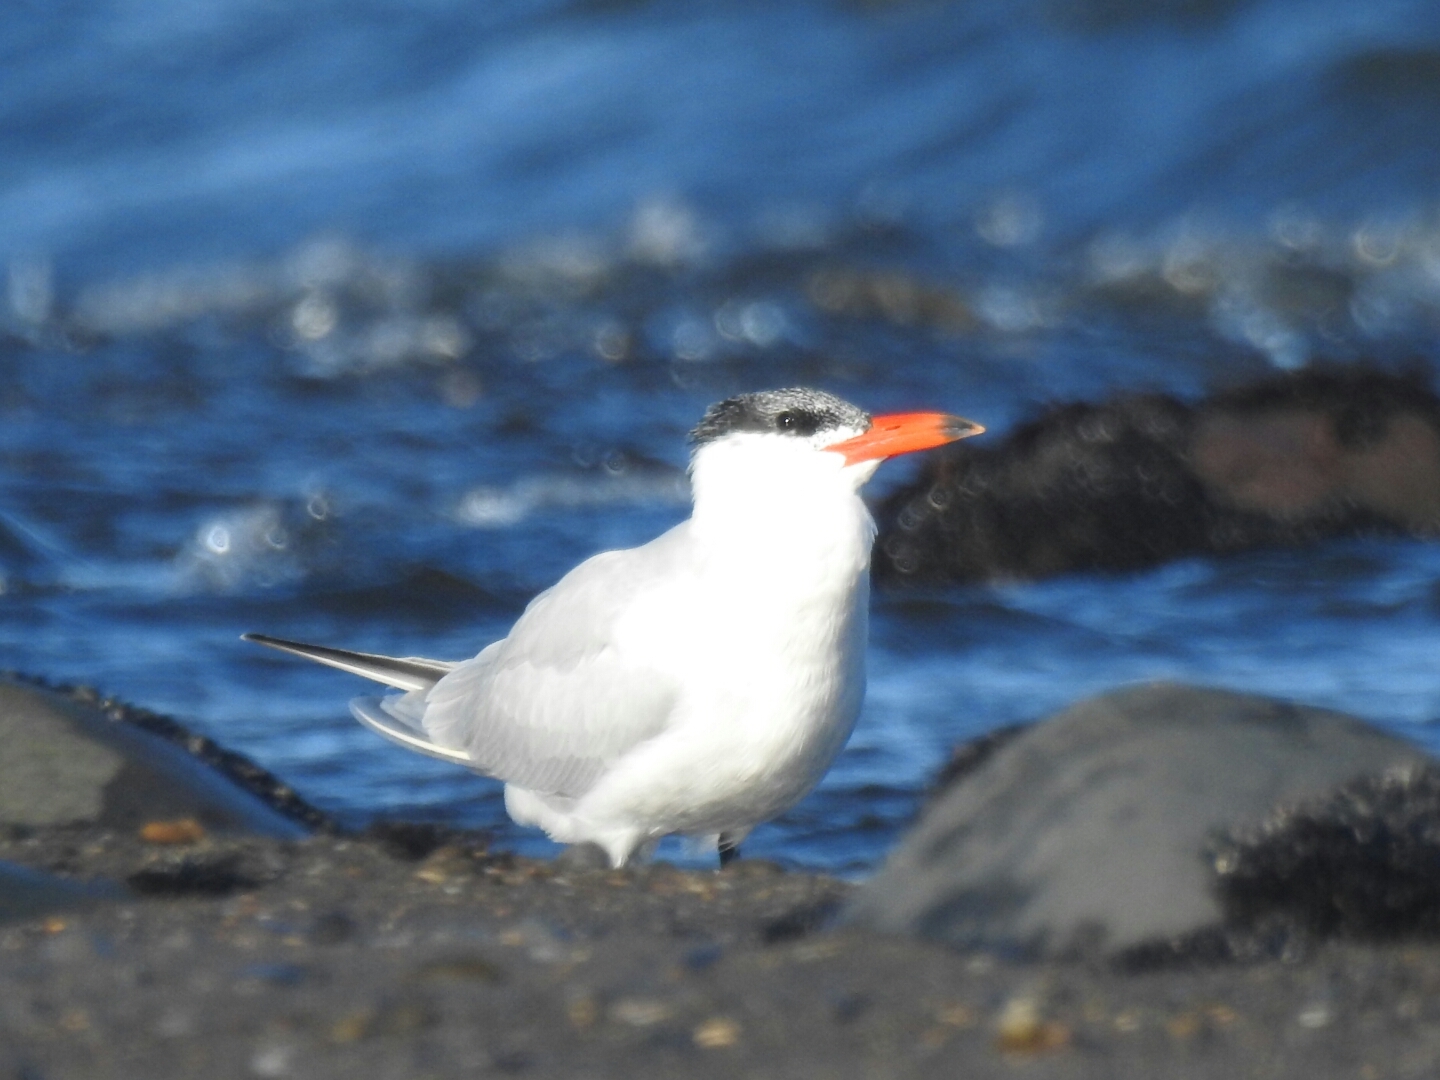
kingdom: Animalia
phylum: Chordata
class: Aves
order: Charadriiformes
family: Laridae
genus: Hydroprogne
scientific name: Hydroprogne caspia
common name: Caspian tern
